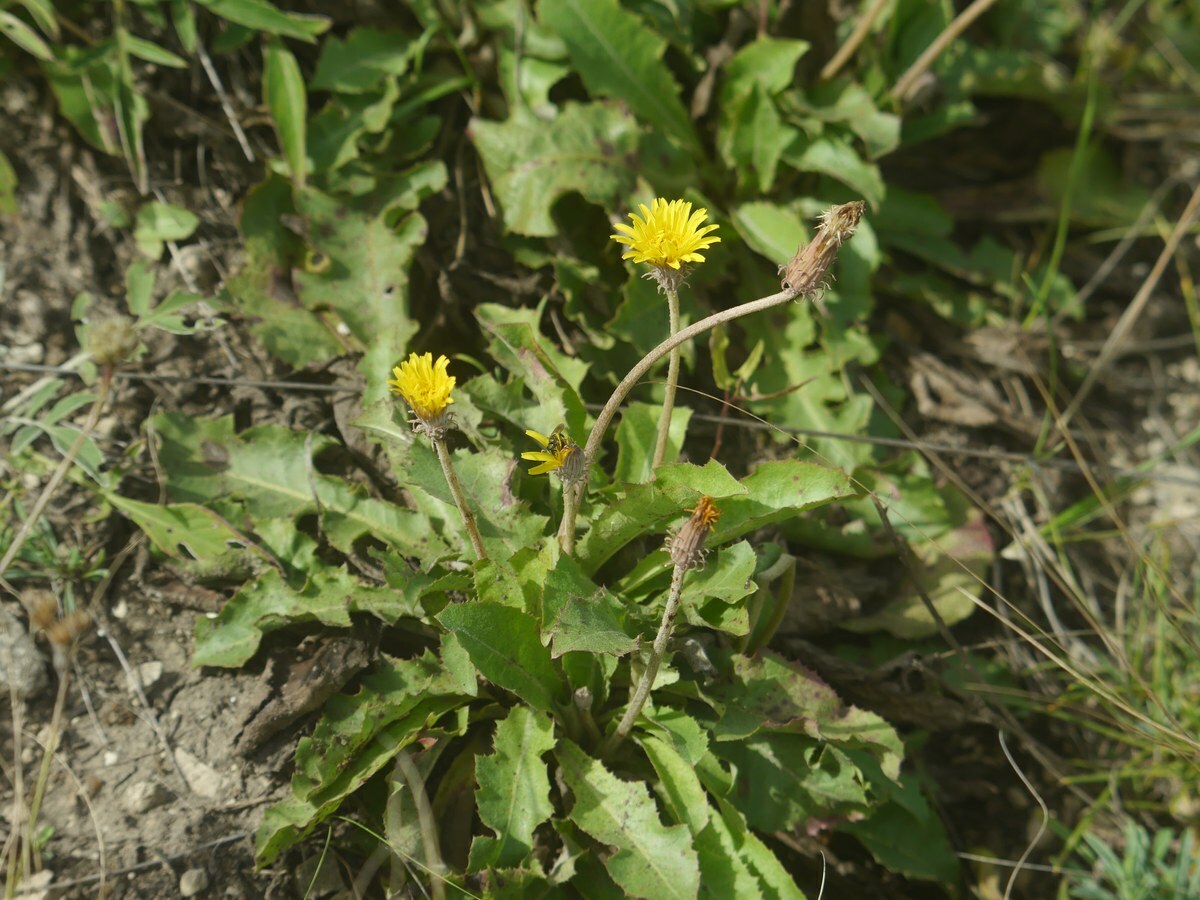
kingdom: Plantae
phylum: Tracheophyta
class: Magnoliopsida
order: Asterales
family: Asteraceae
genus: Taraxacum
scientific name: Taraxacum serotinum
